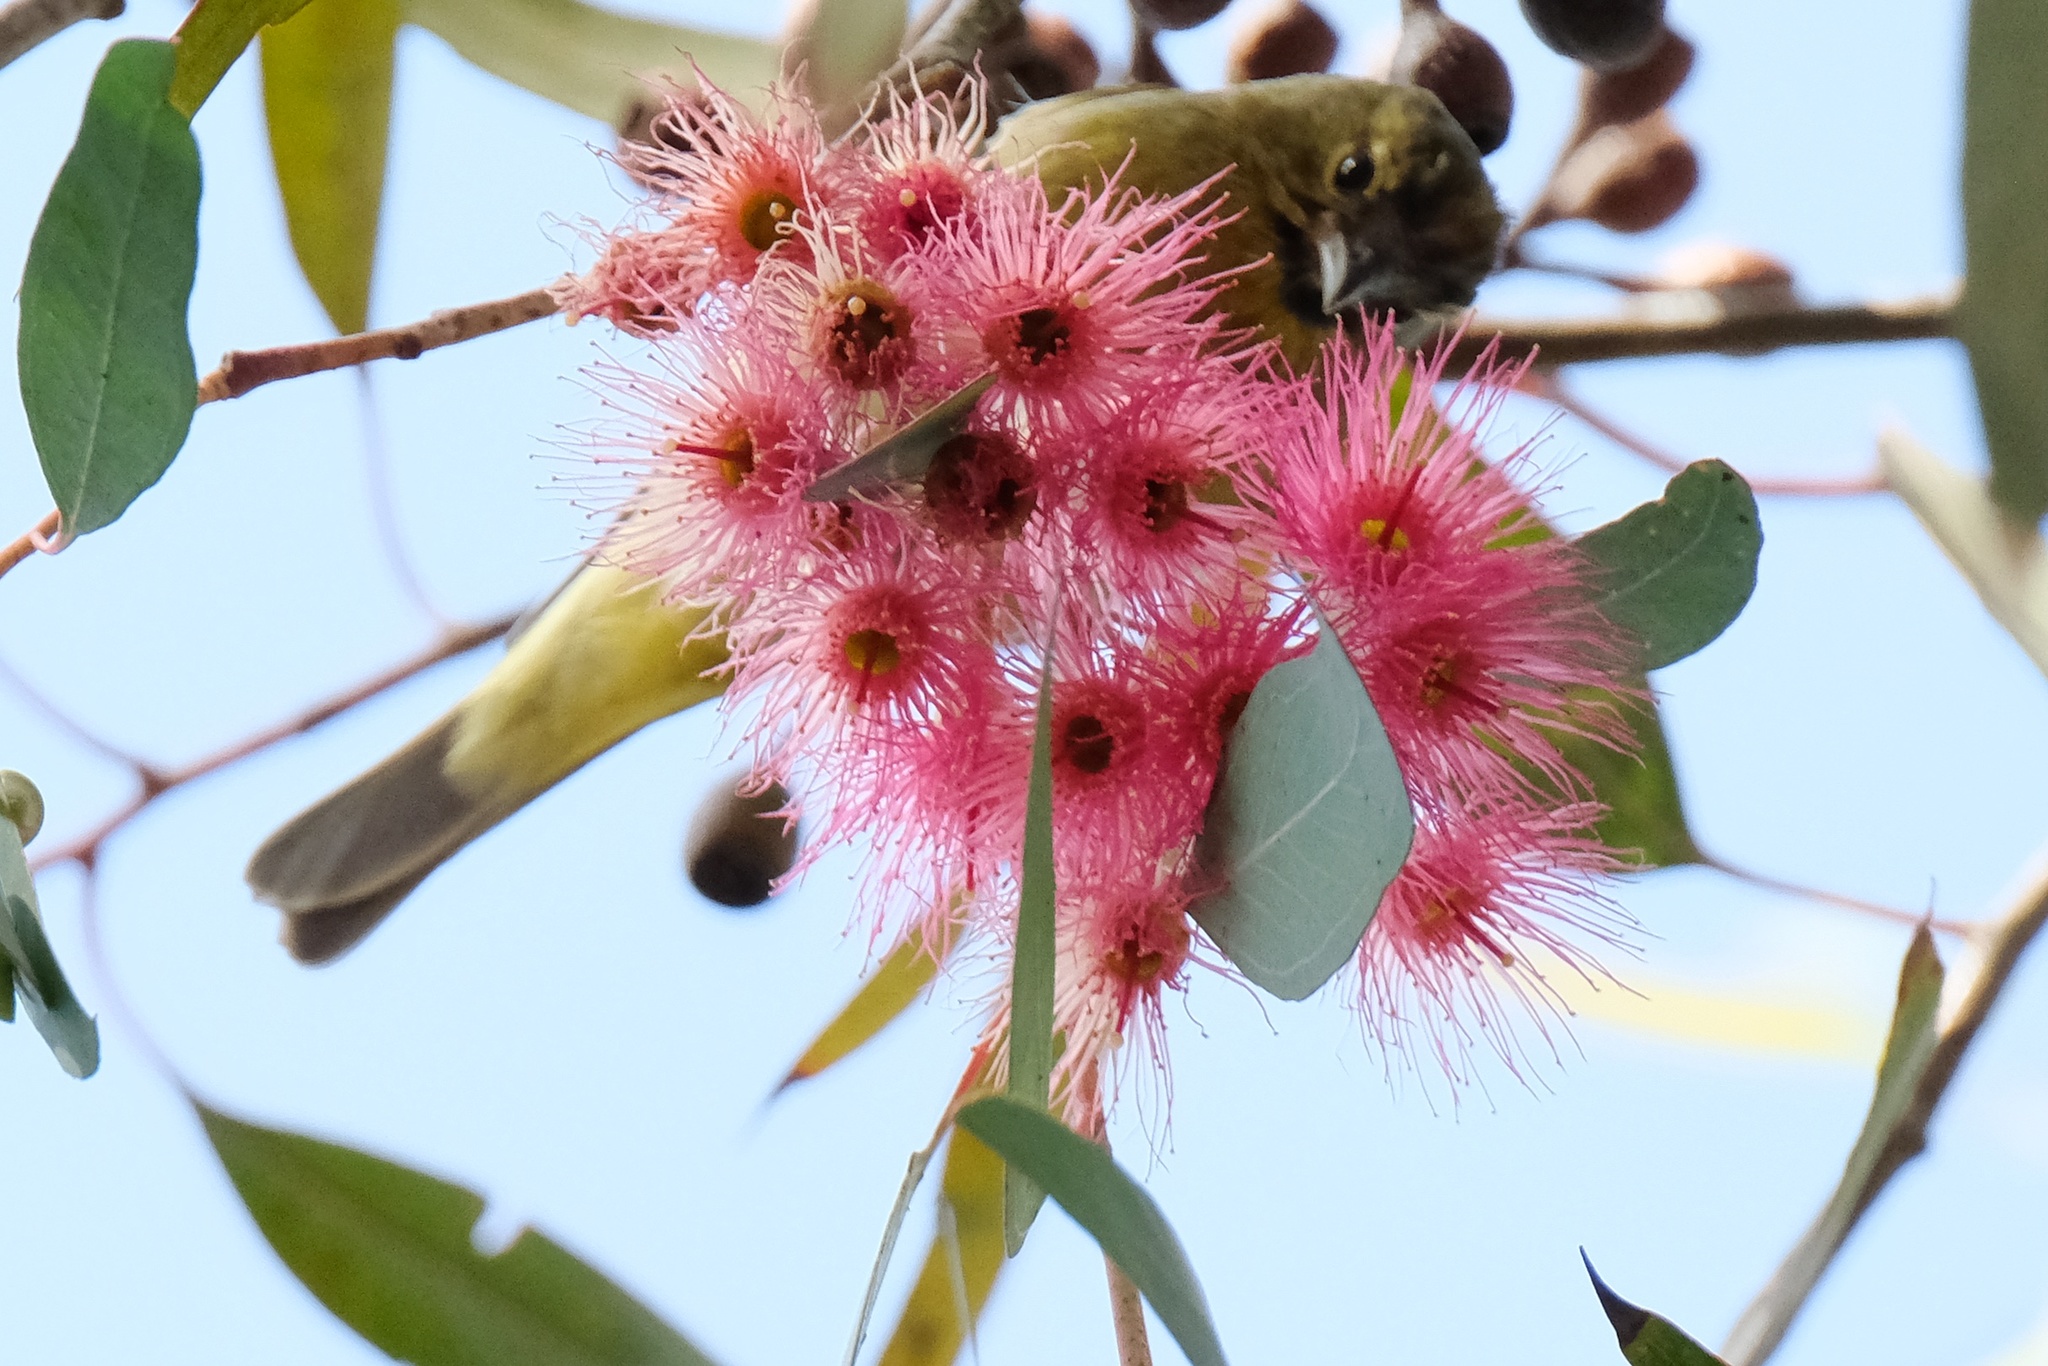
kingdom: Animalia
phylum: Chordata
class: Aves
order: Passeriformes
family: Parulidae
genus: Leiothlypis
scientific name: Leiothlypis celata
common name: Orange-crowned warbler
